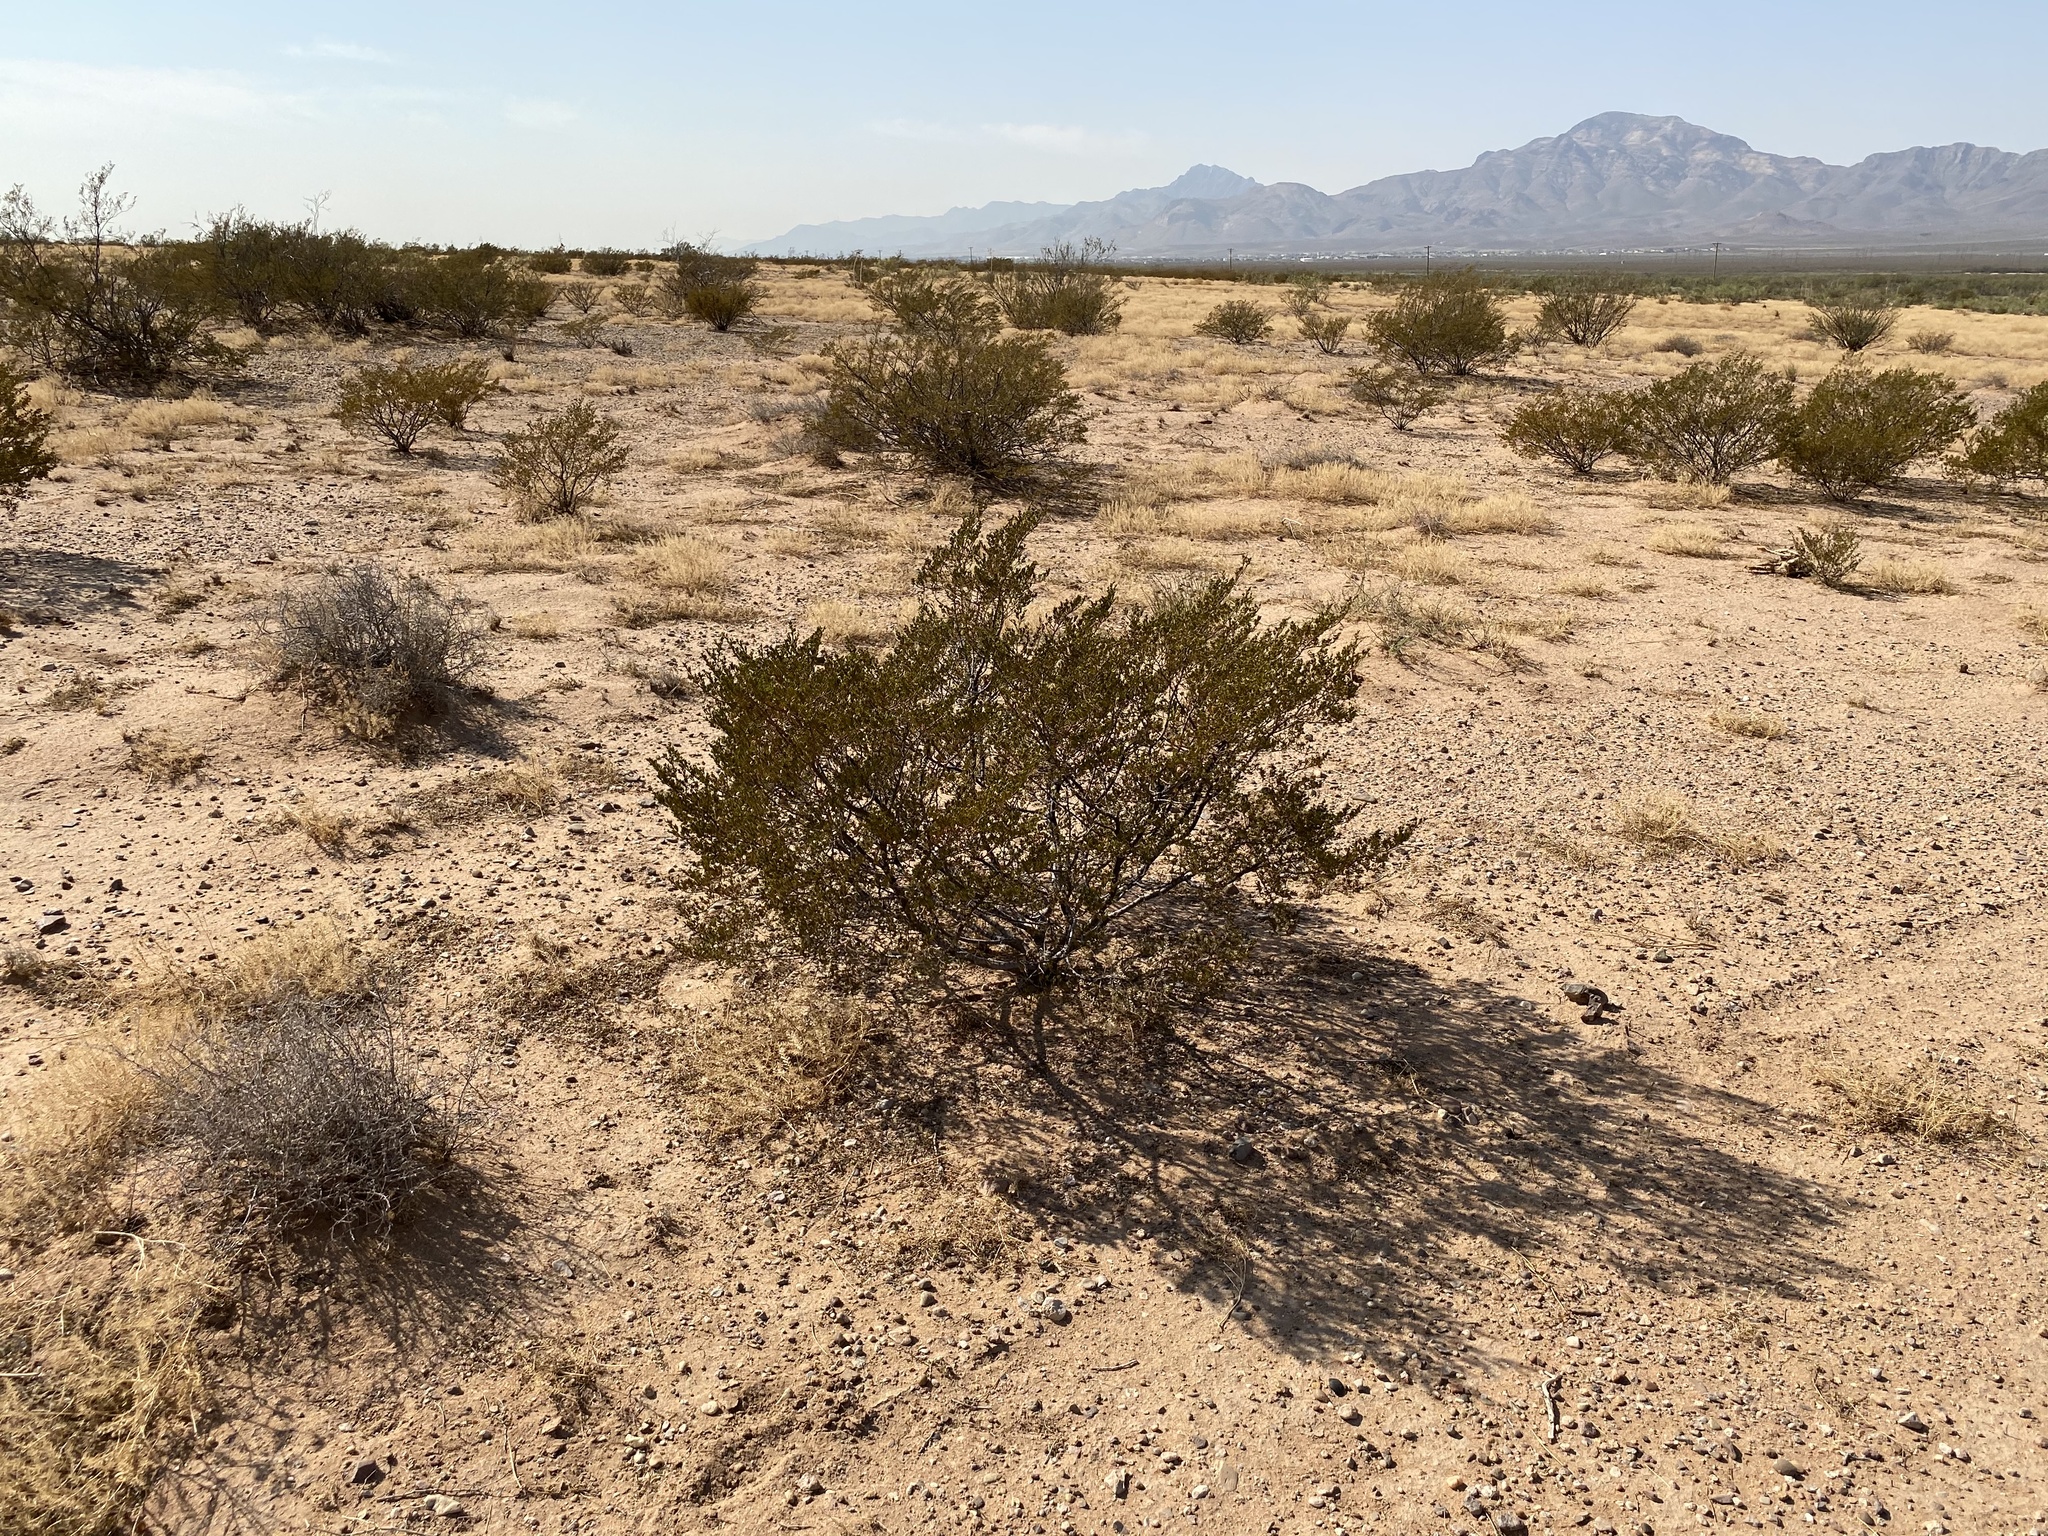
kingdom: Plantae
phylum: Tracheophyta
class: Magnoliopsida
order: Zygophyllales
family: Zygophyllaceae
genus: Larrea
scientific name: Larrea tridentata
